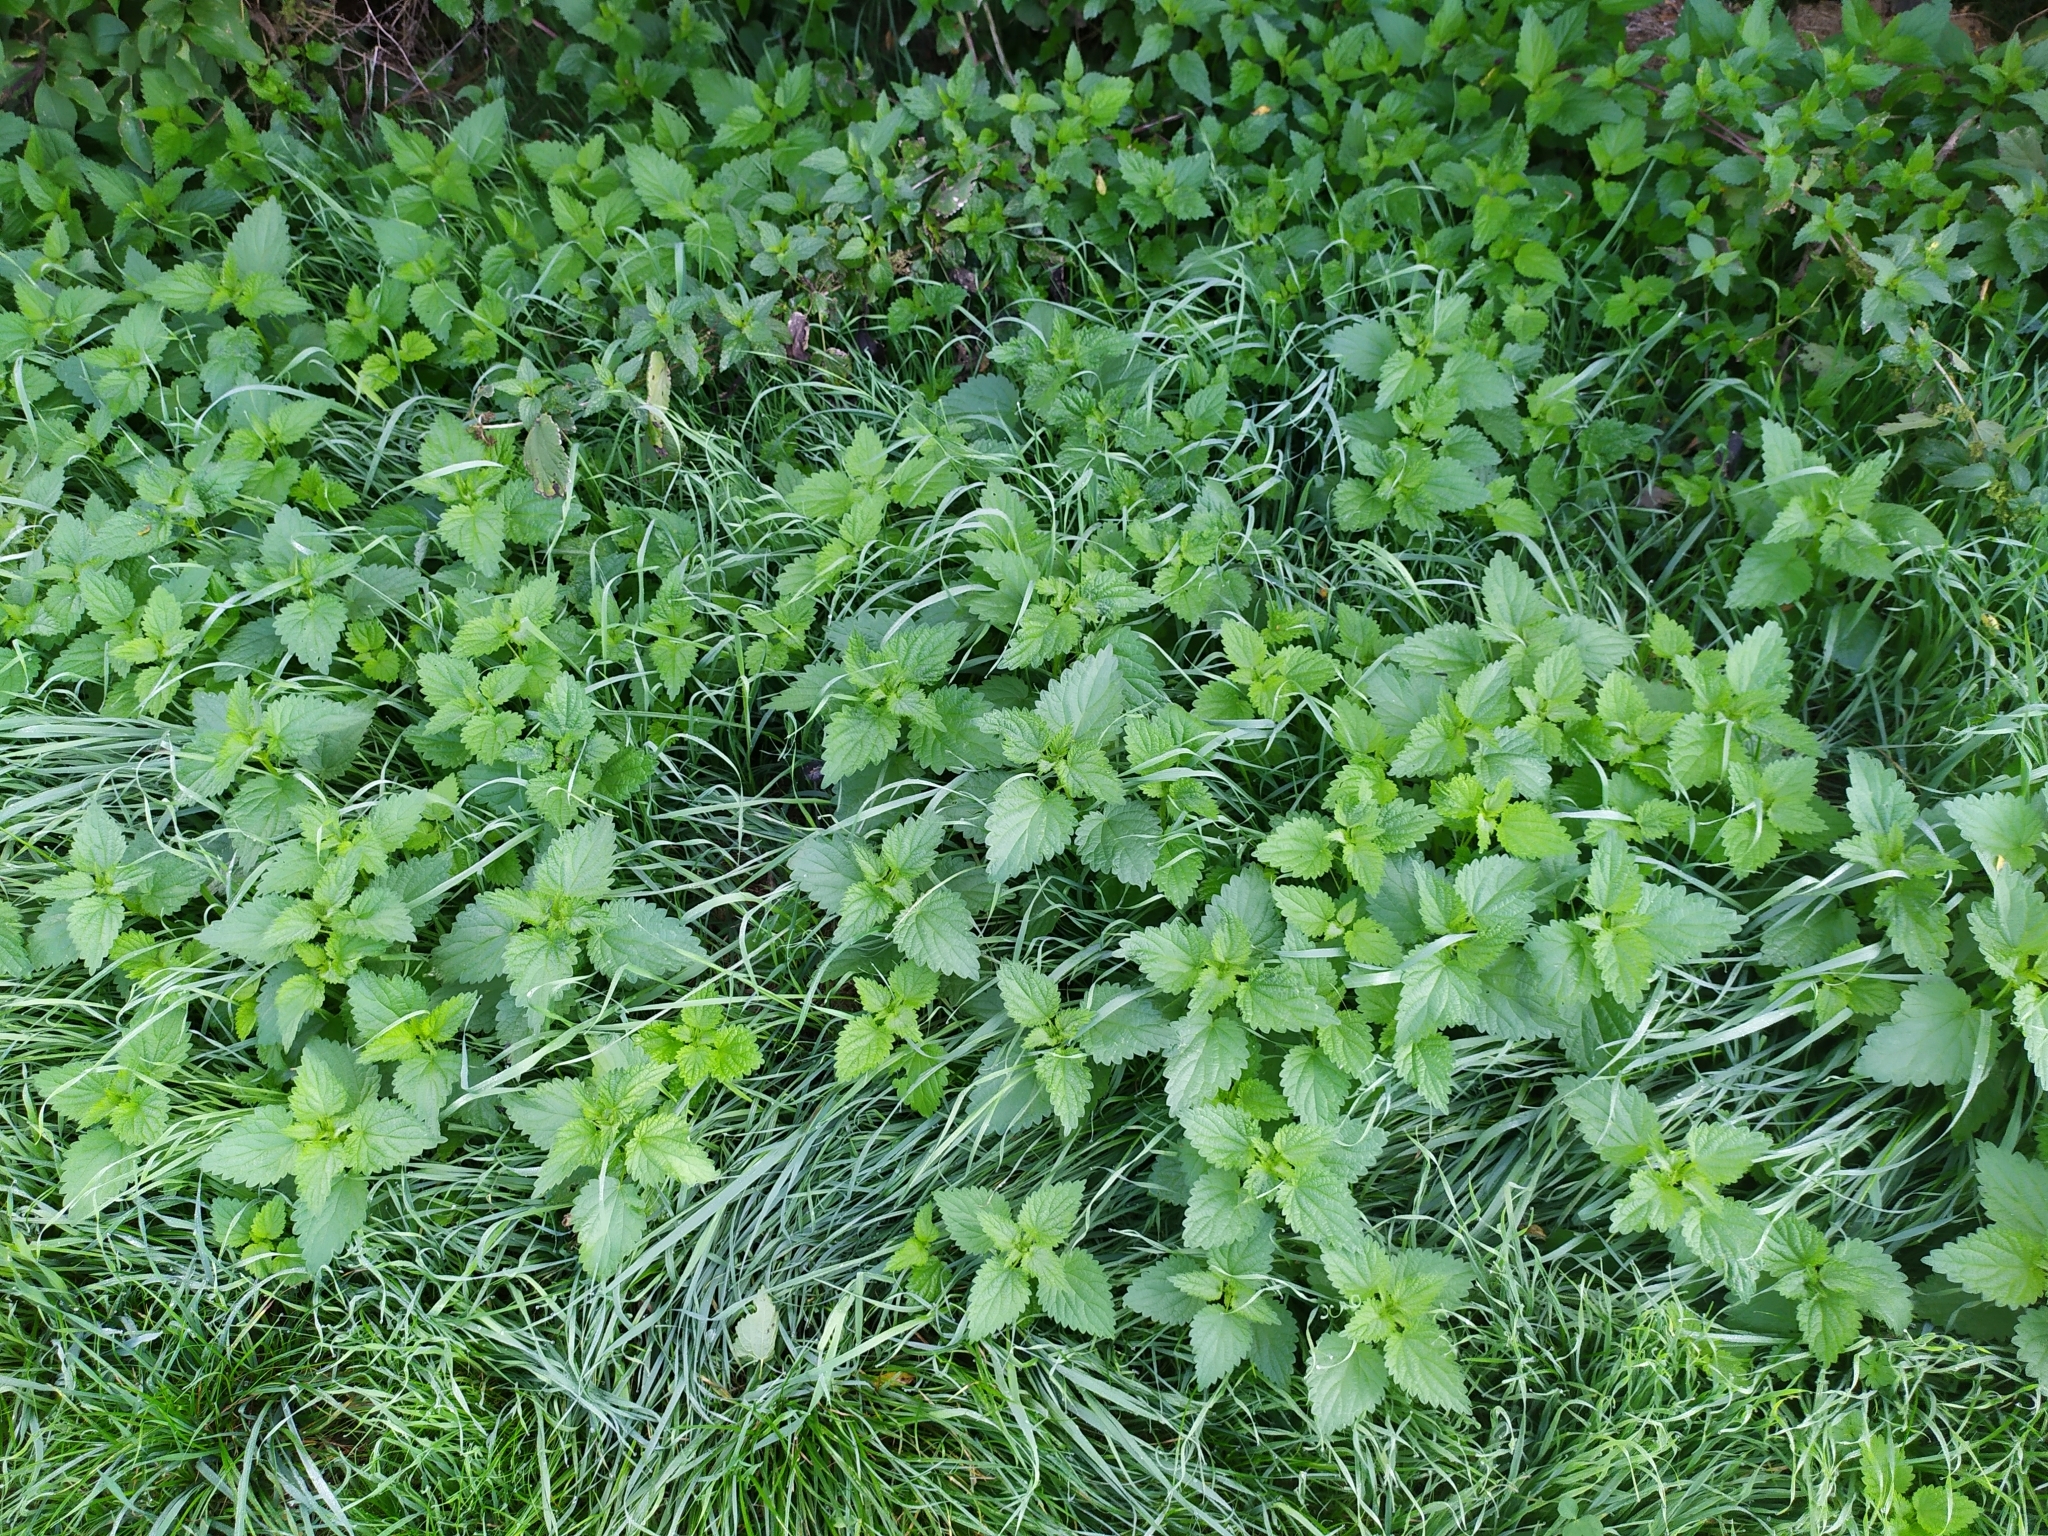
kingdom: Plantae
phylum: Tracheophyta
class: Magnoliopsida
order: Rosales
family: Urticaceae
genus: Urtica
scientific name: Urtica dioica
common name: Common nettle
